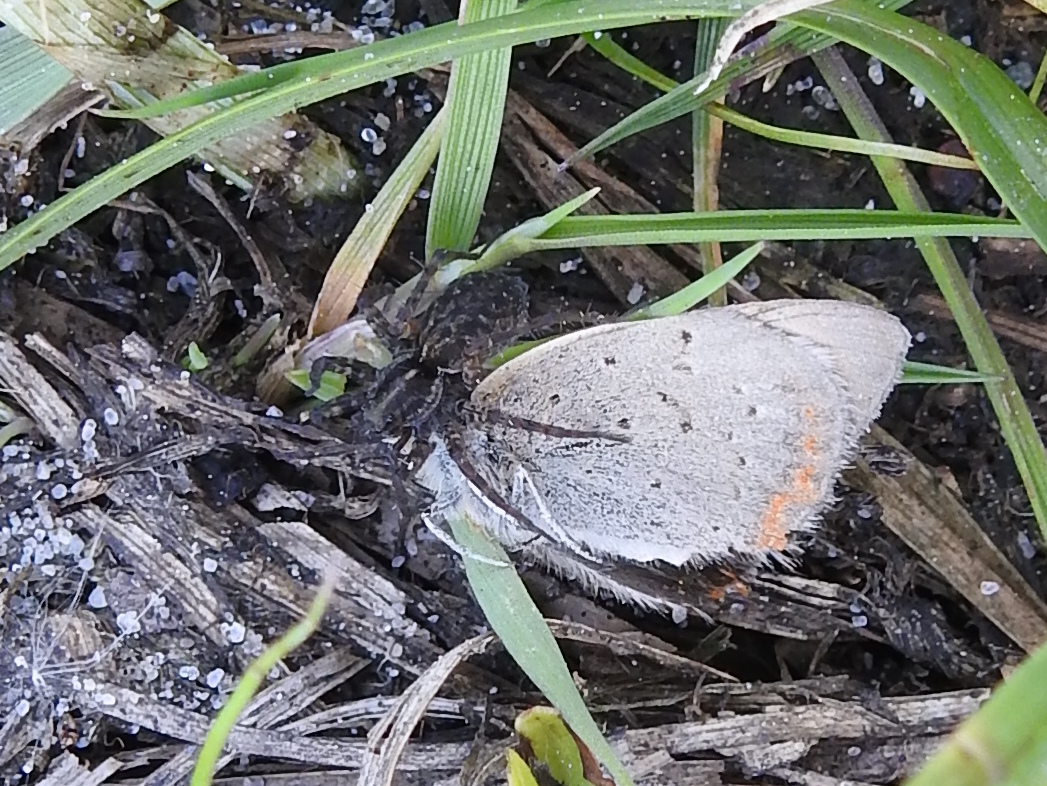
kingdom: Animalia
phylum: Arthropoda
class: Insecta
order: Lepidoptera
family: Lycaenidae
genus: Lycaena
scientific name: Lycaena phlaeas
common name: Small copper
